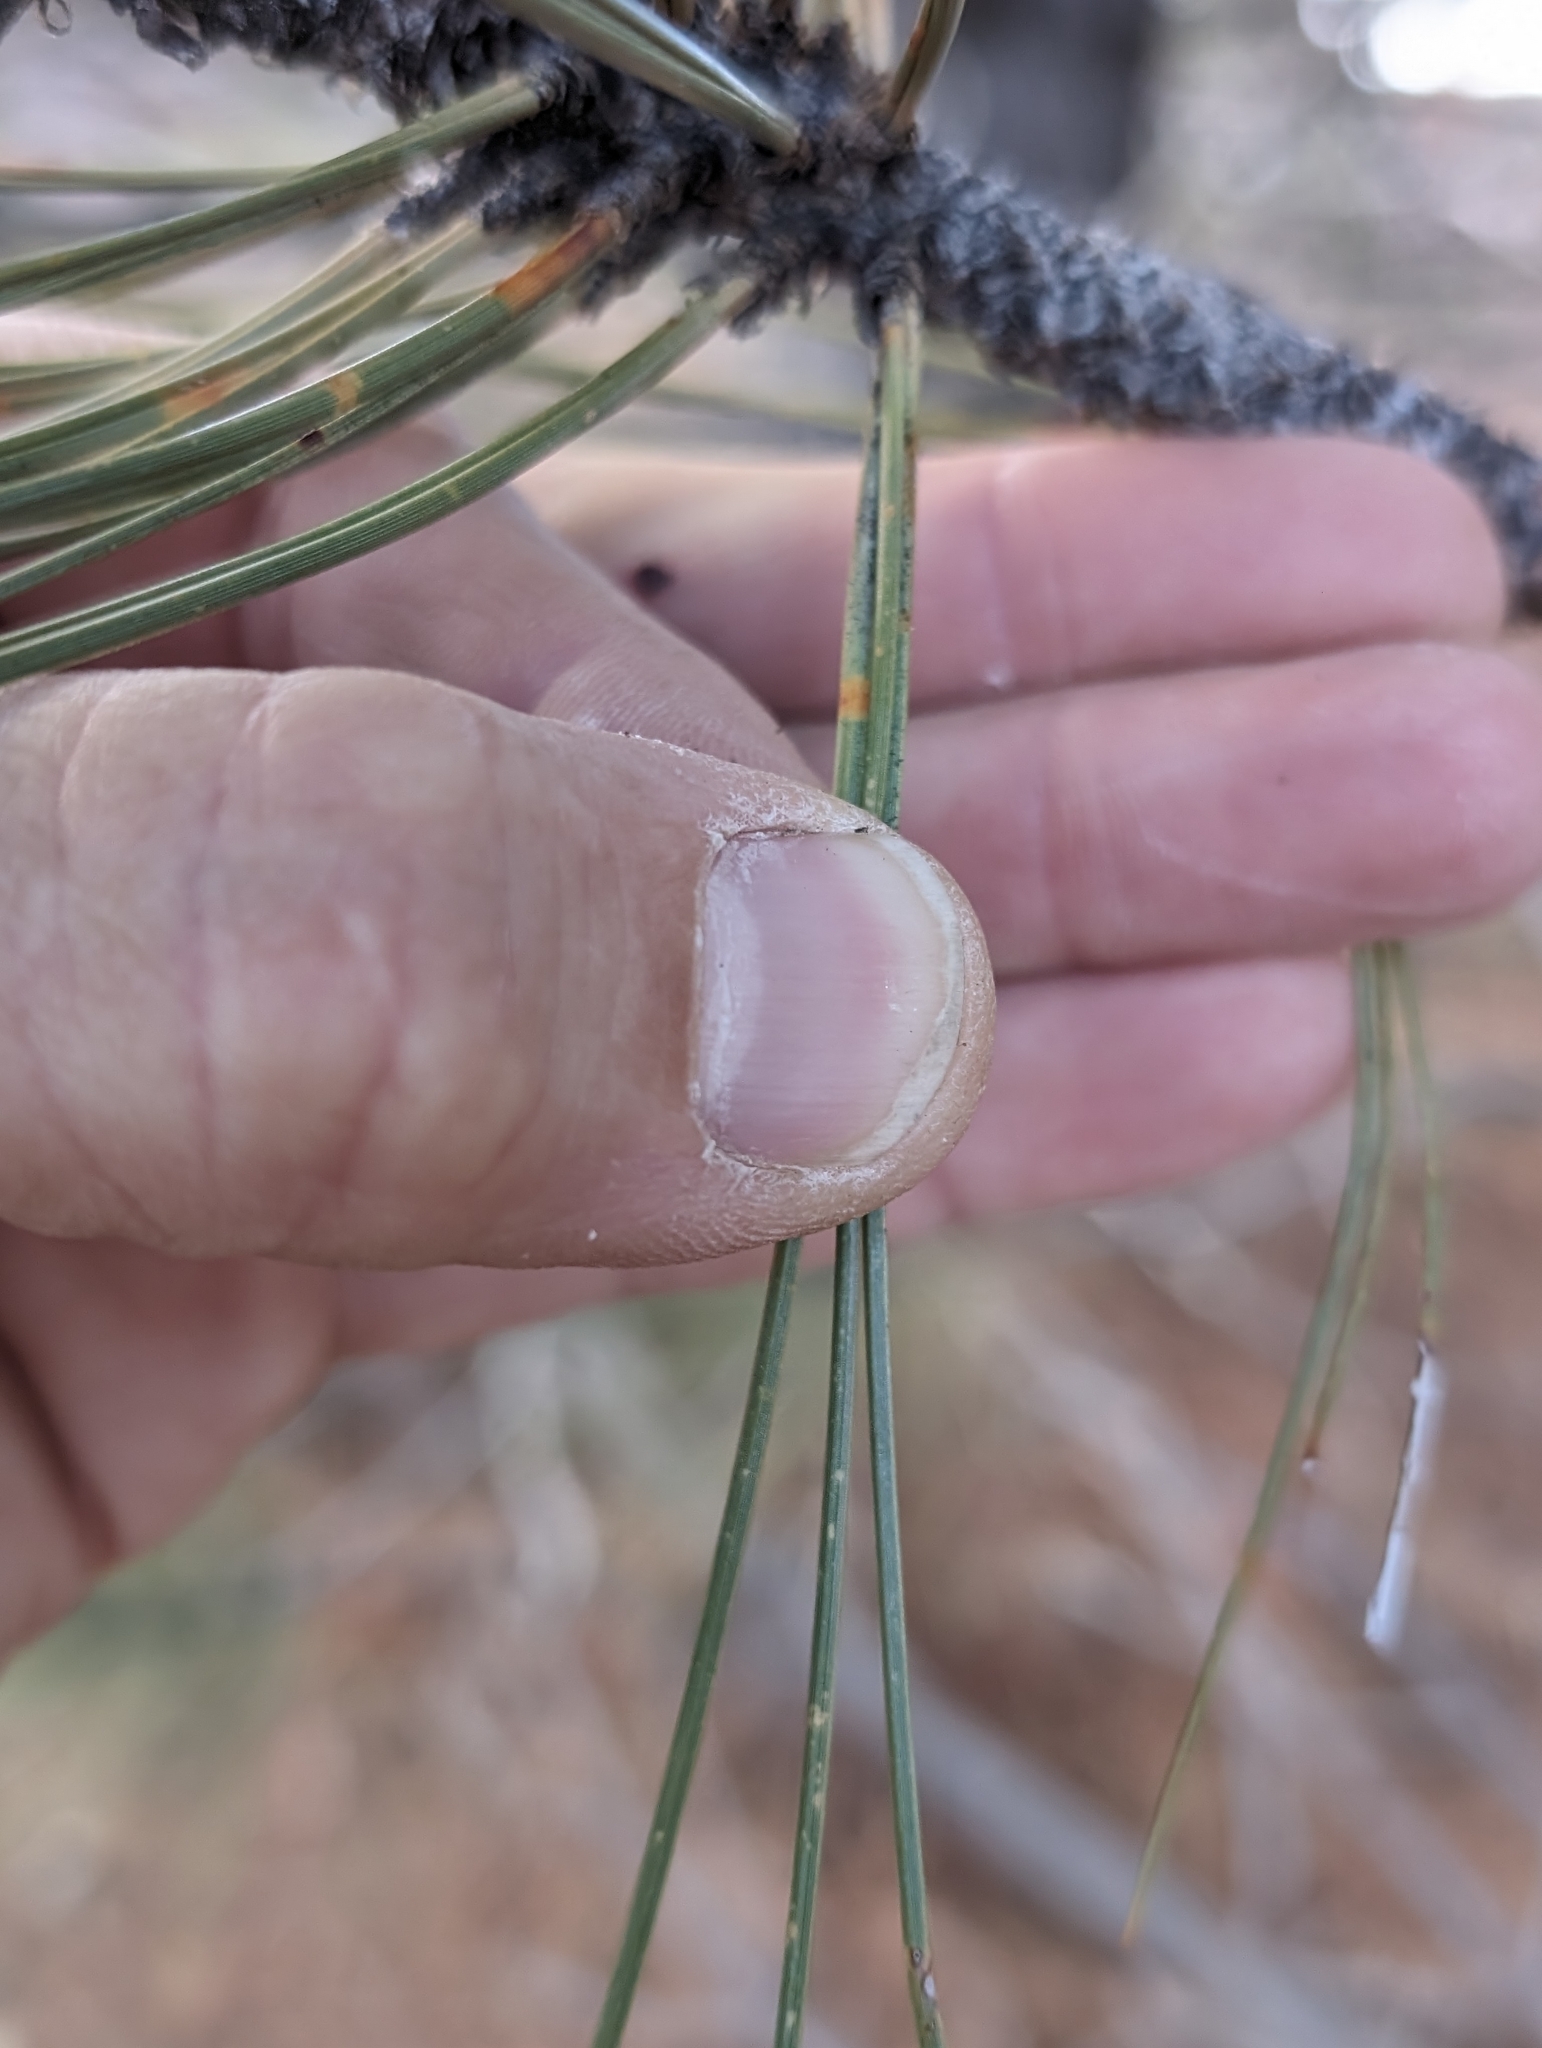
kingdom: Plantae
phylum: Tracheophyta
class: Pinopsida
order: Pinales
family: Pinaceae
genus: Pinus
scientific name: Pinus coulteri
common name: Coulter pine
